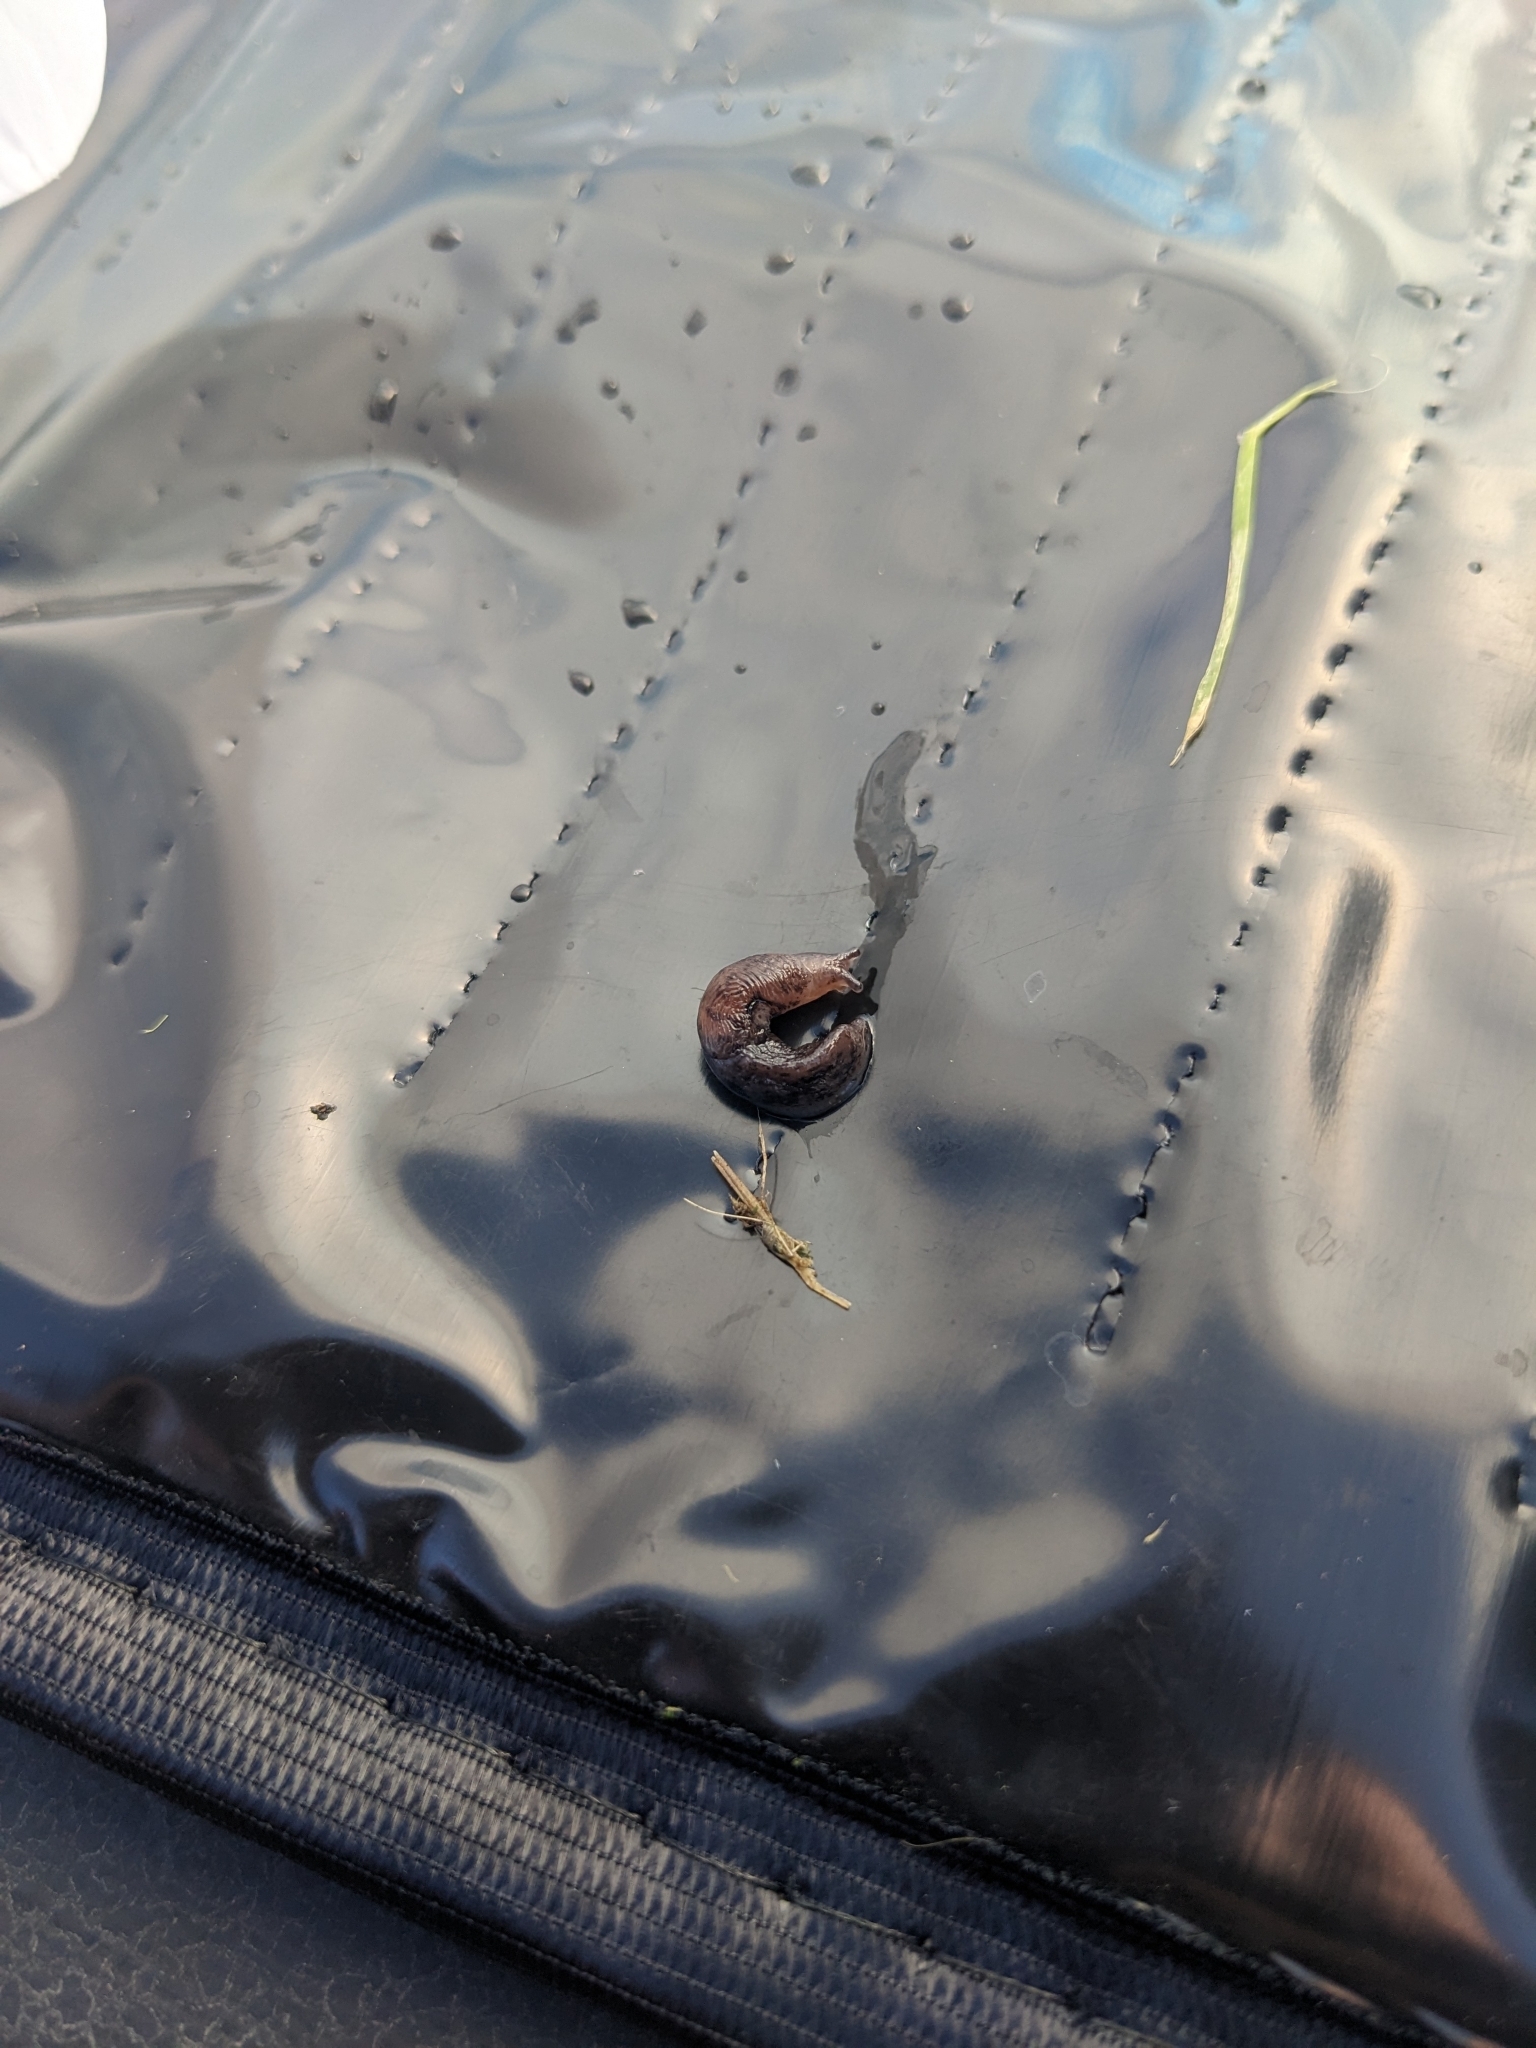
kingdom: Animalia
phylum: Mollusca
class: Gastropoda
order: Stylommatophora
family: Agriolimacidae
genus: Deroceras
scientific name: Deroceras laeve
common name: Marsh slug
